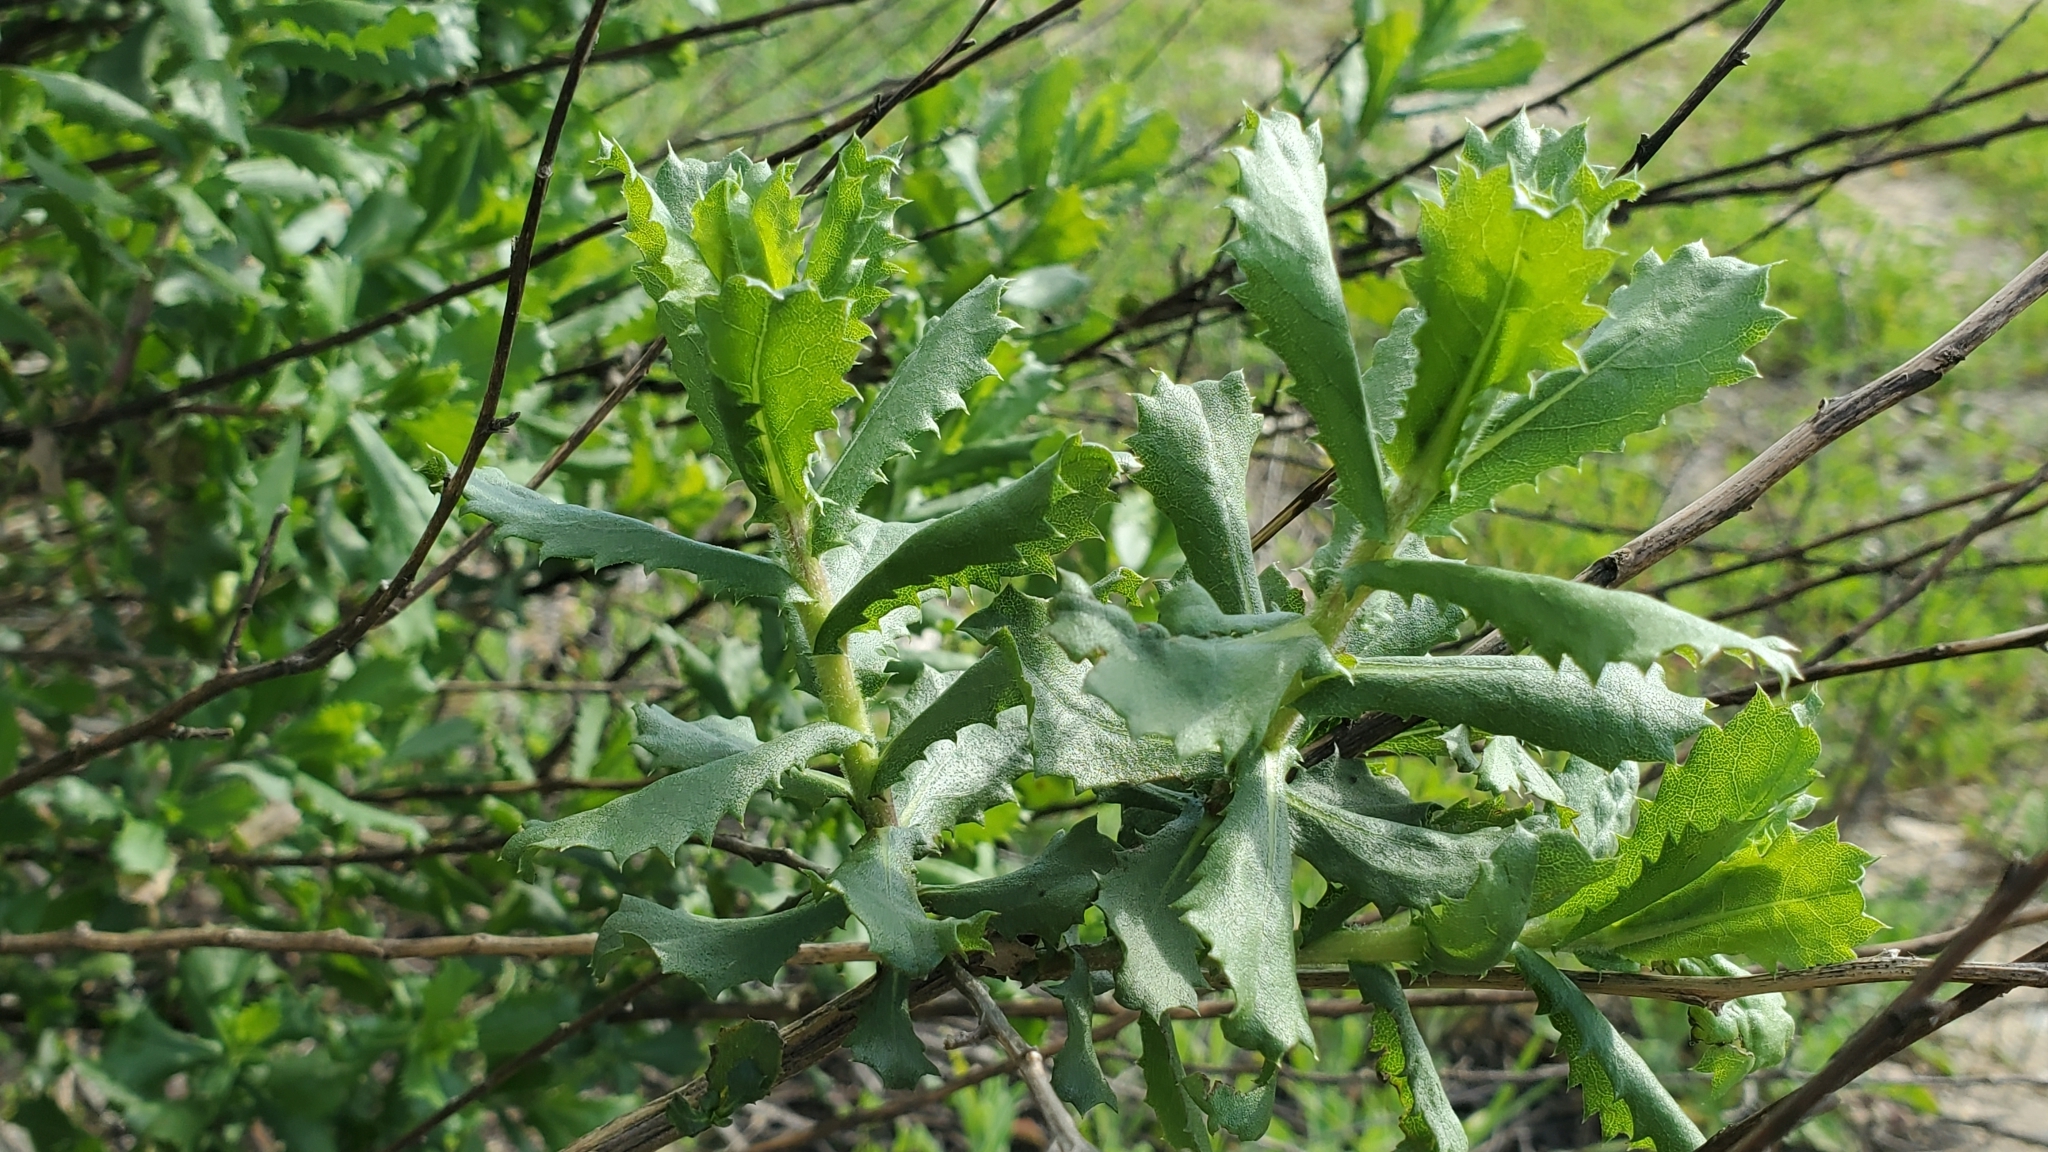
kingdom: Plantae
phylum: Tracheophyta
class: Magnoliopsida
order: Asterales
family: Asteraceae
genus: Hazardia
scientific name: Hazardia squarrosa
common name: Saw-tooth goldenbush
